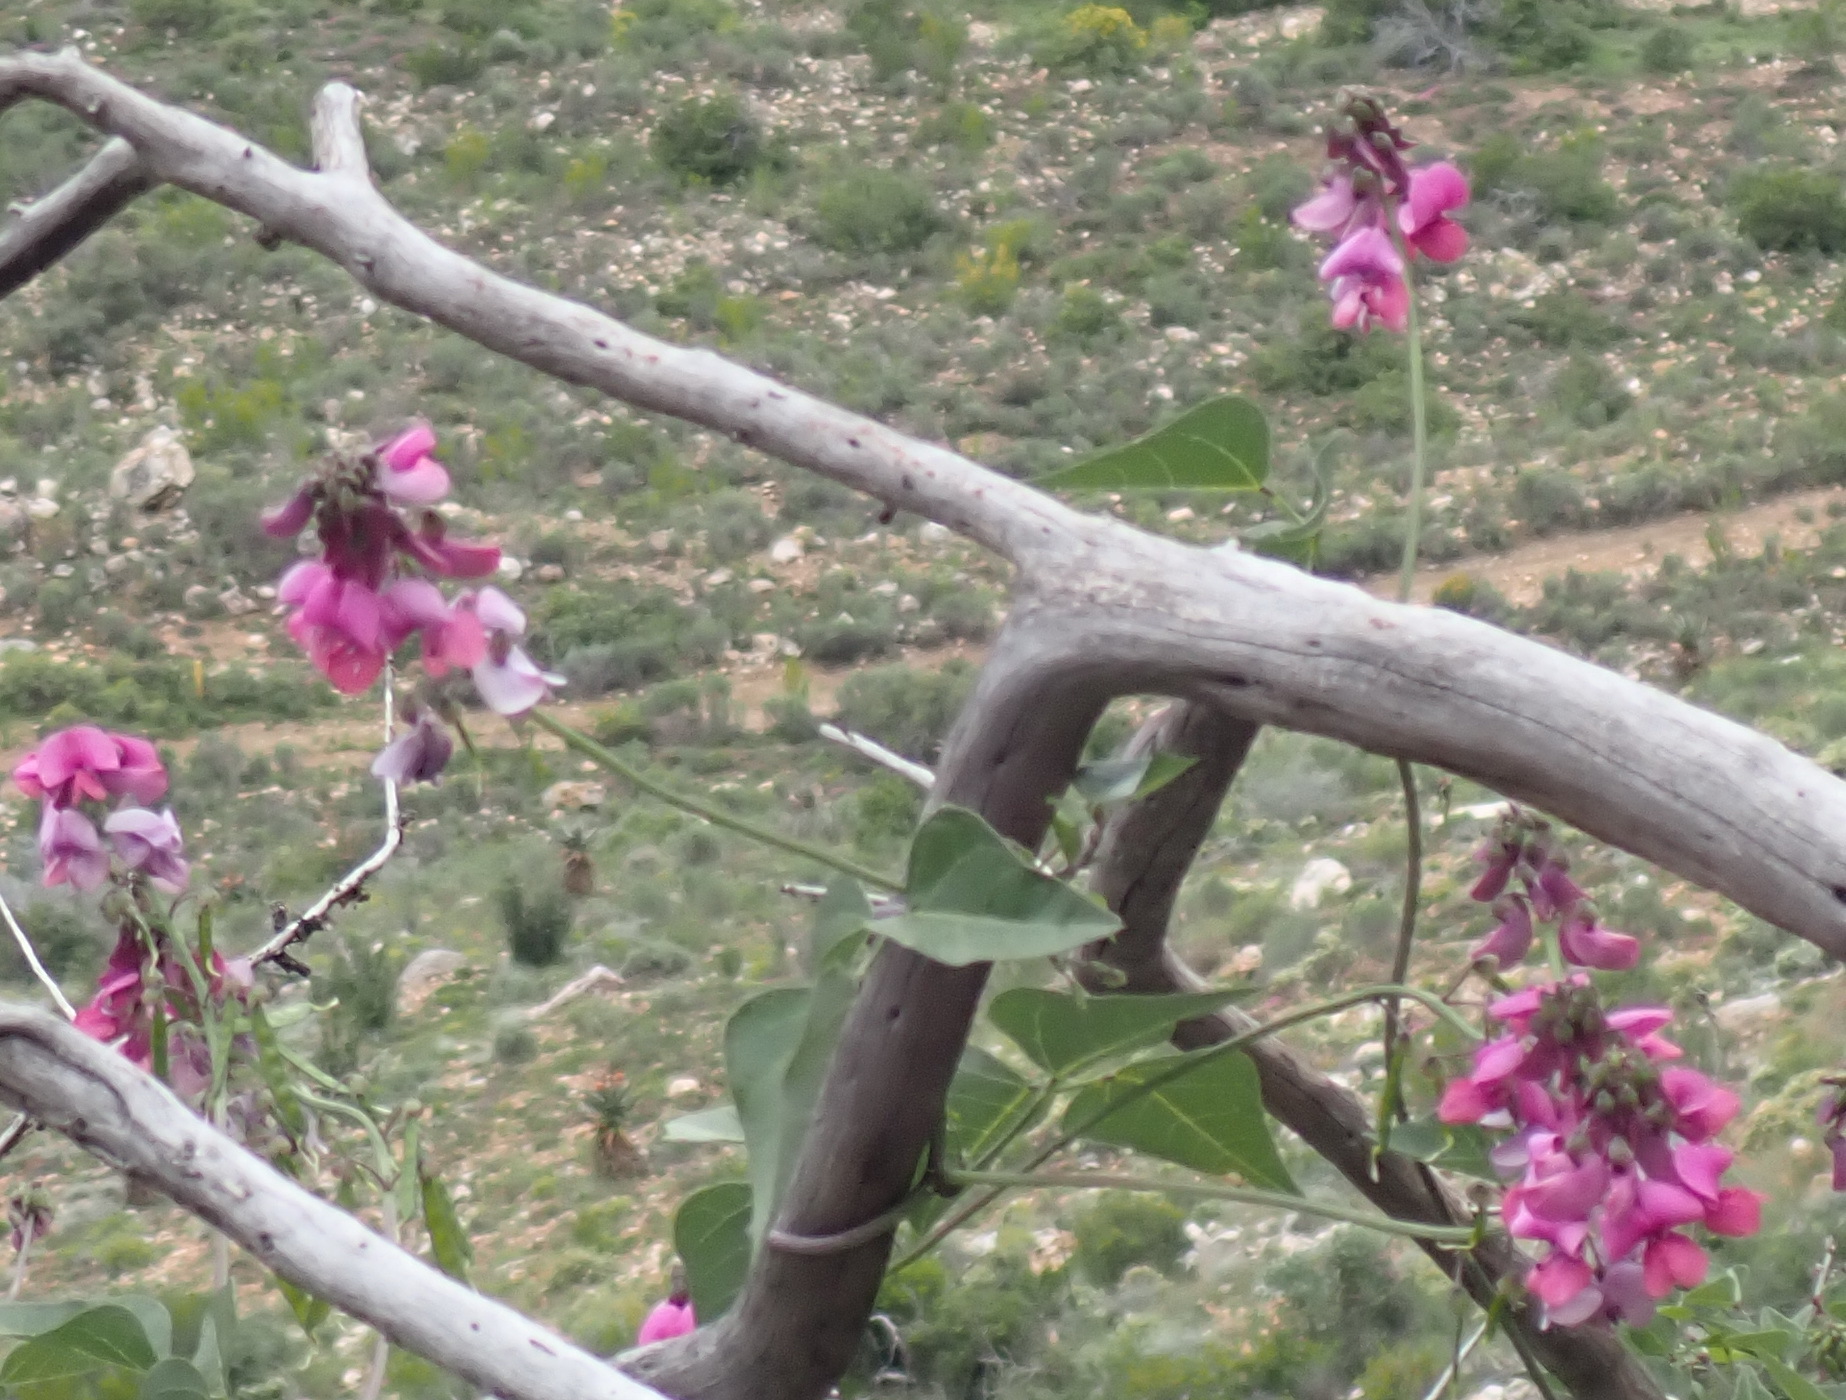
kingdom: Plantae
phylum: Tracheophyta
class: Magnoliopsida
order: Fabales
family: Fabaceae
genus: Dipogon
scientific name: Dipogon lignosus
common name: Okie bean
